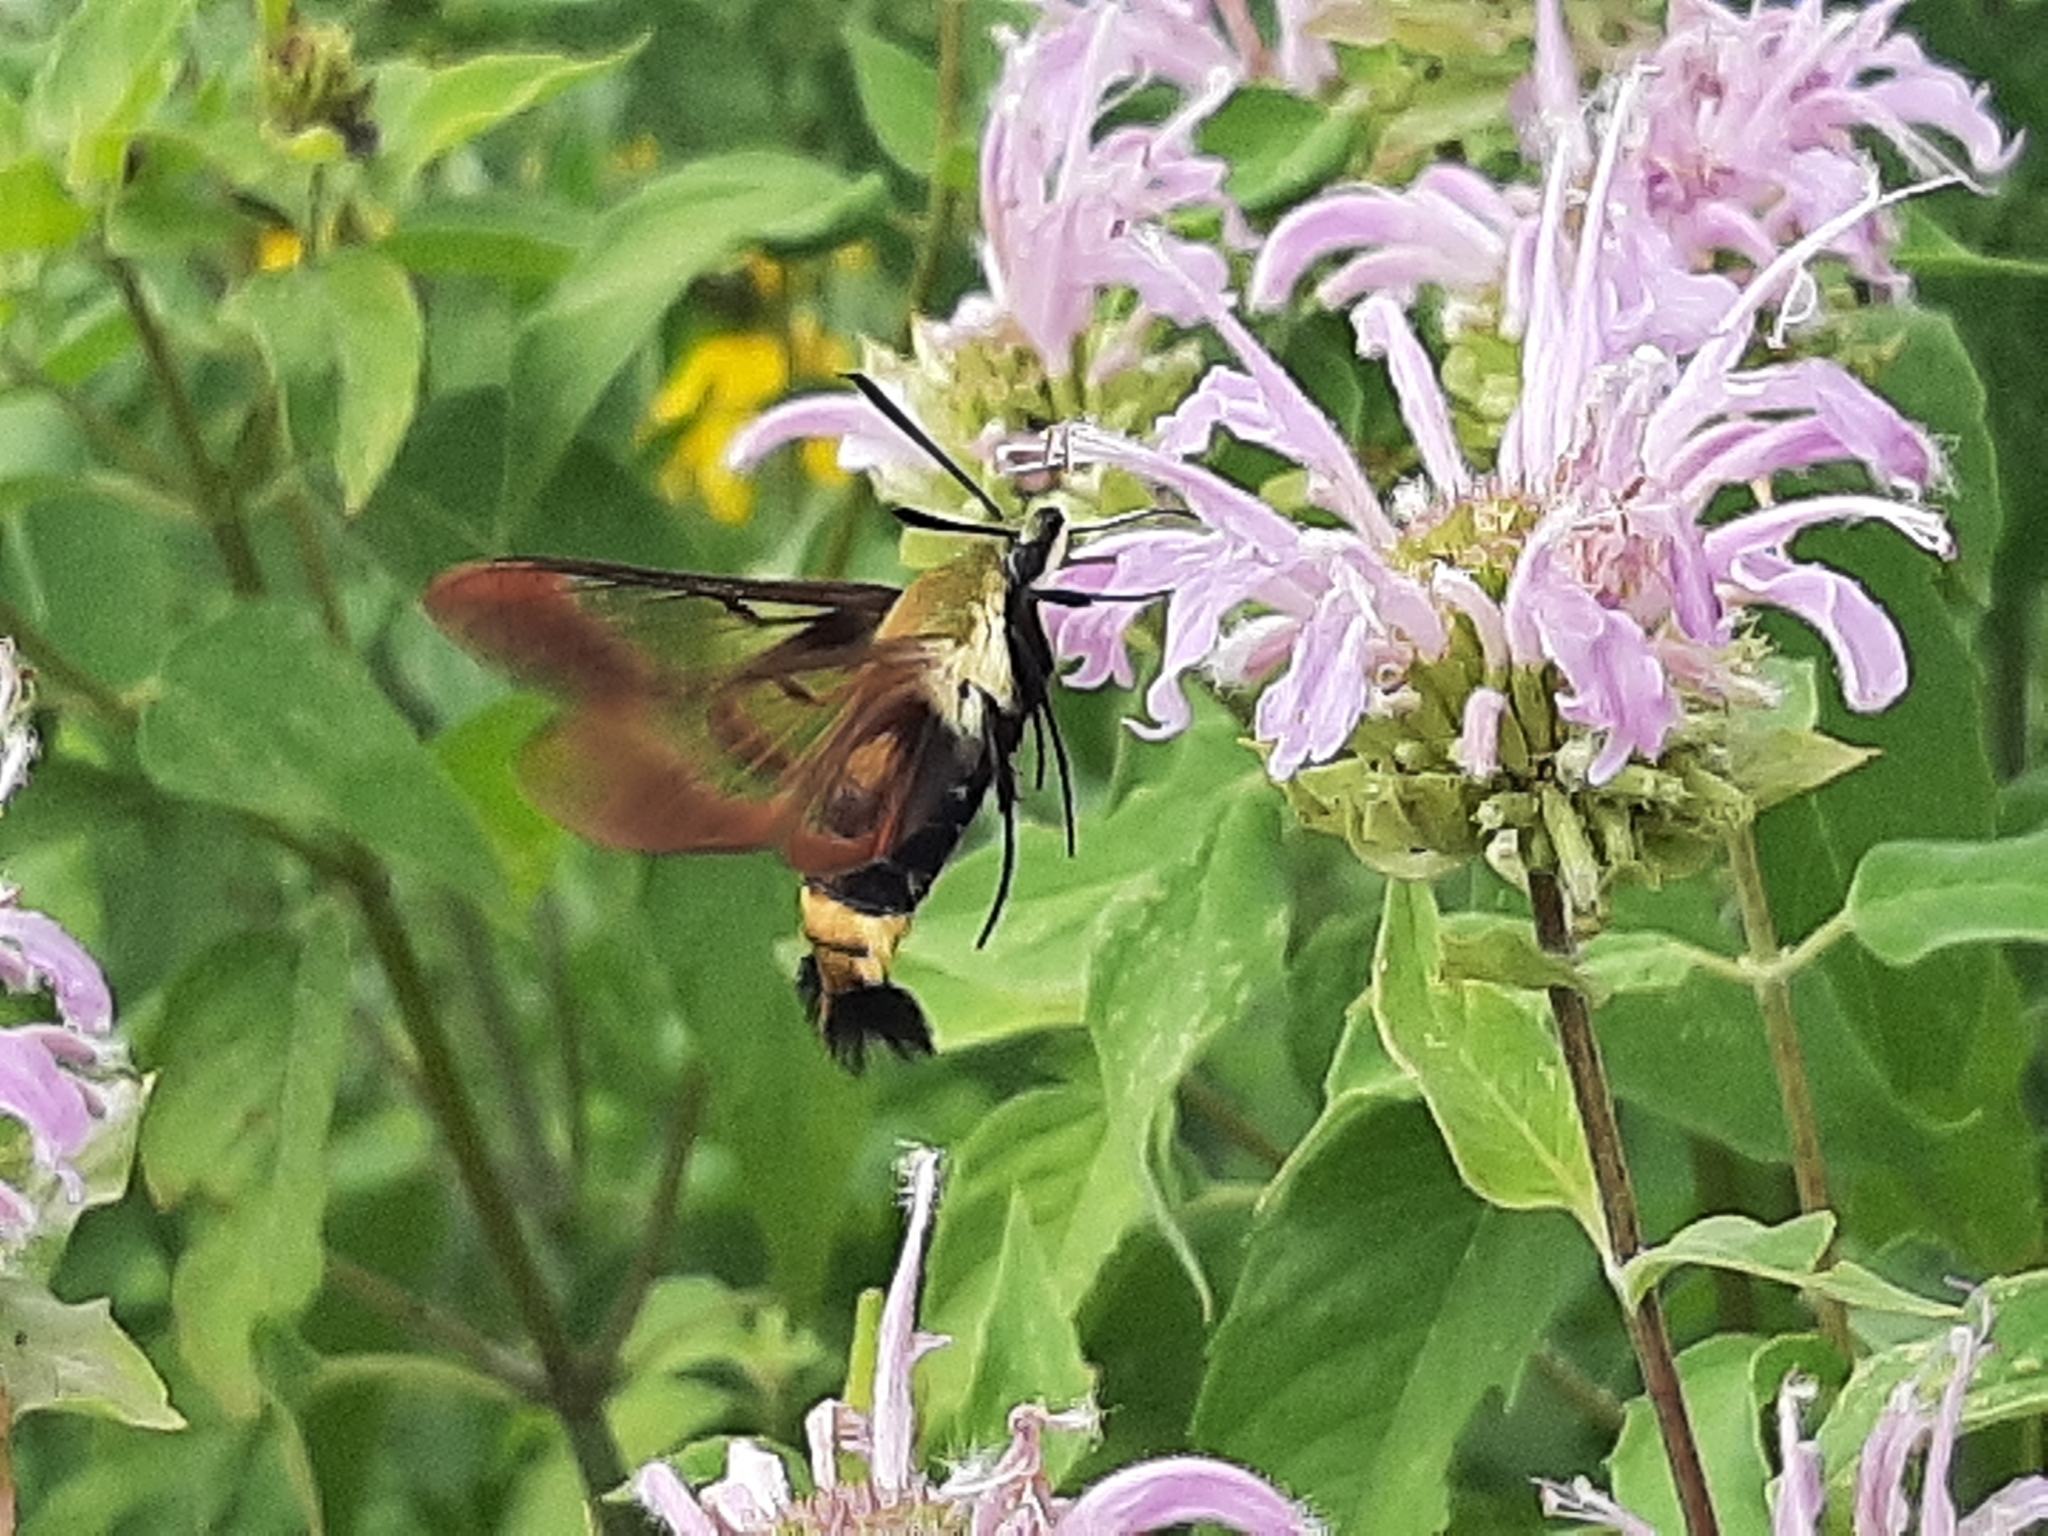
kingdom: Animalia
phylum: Arthropoda
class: Insecta
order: Lepidoptera
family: Sphingidae
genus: Hemaris
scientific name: Hemaris diffinis
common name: Bumblebee moth
